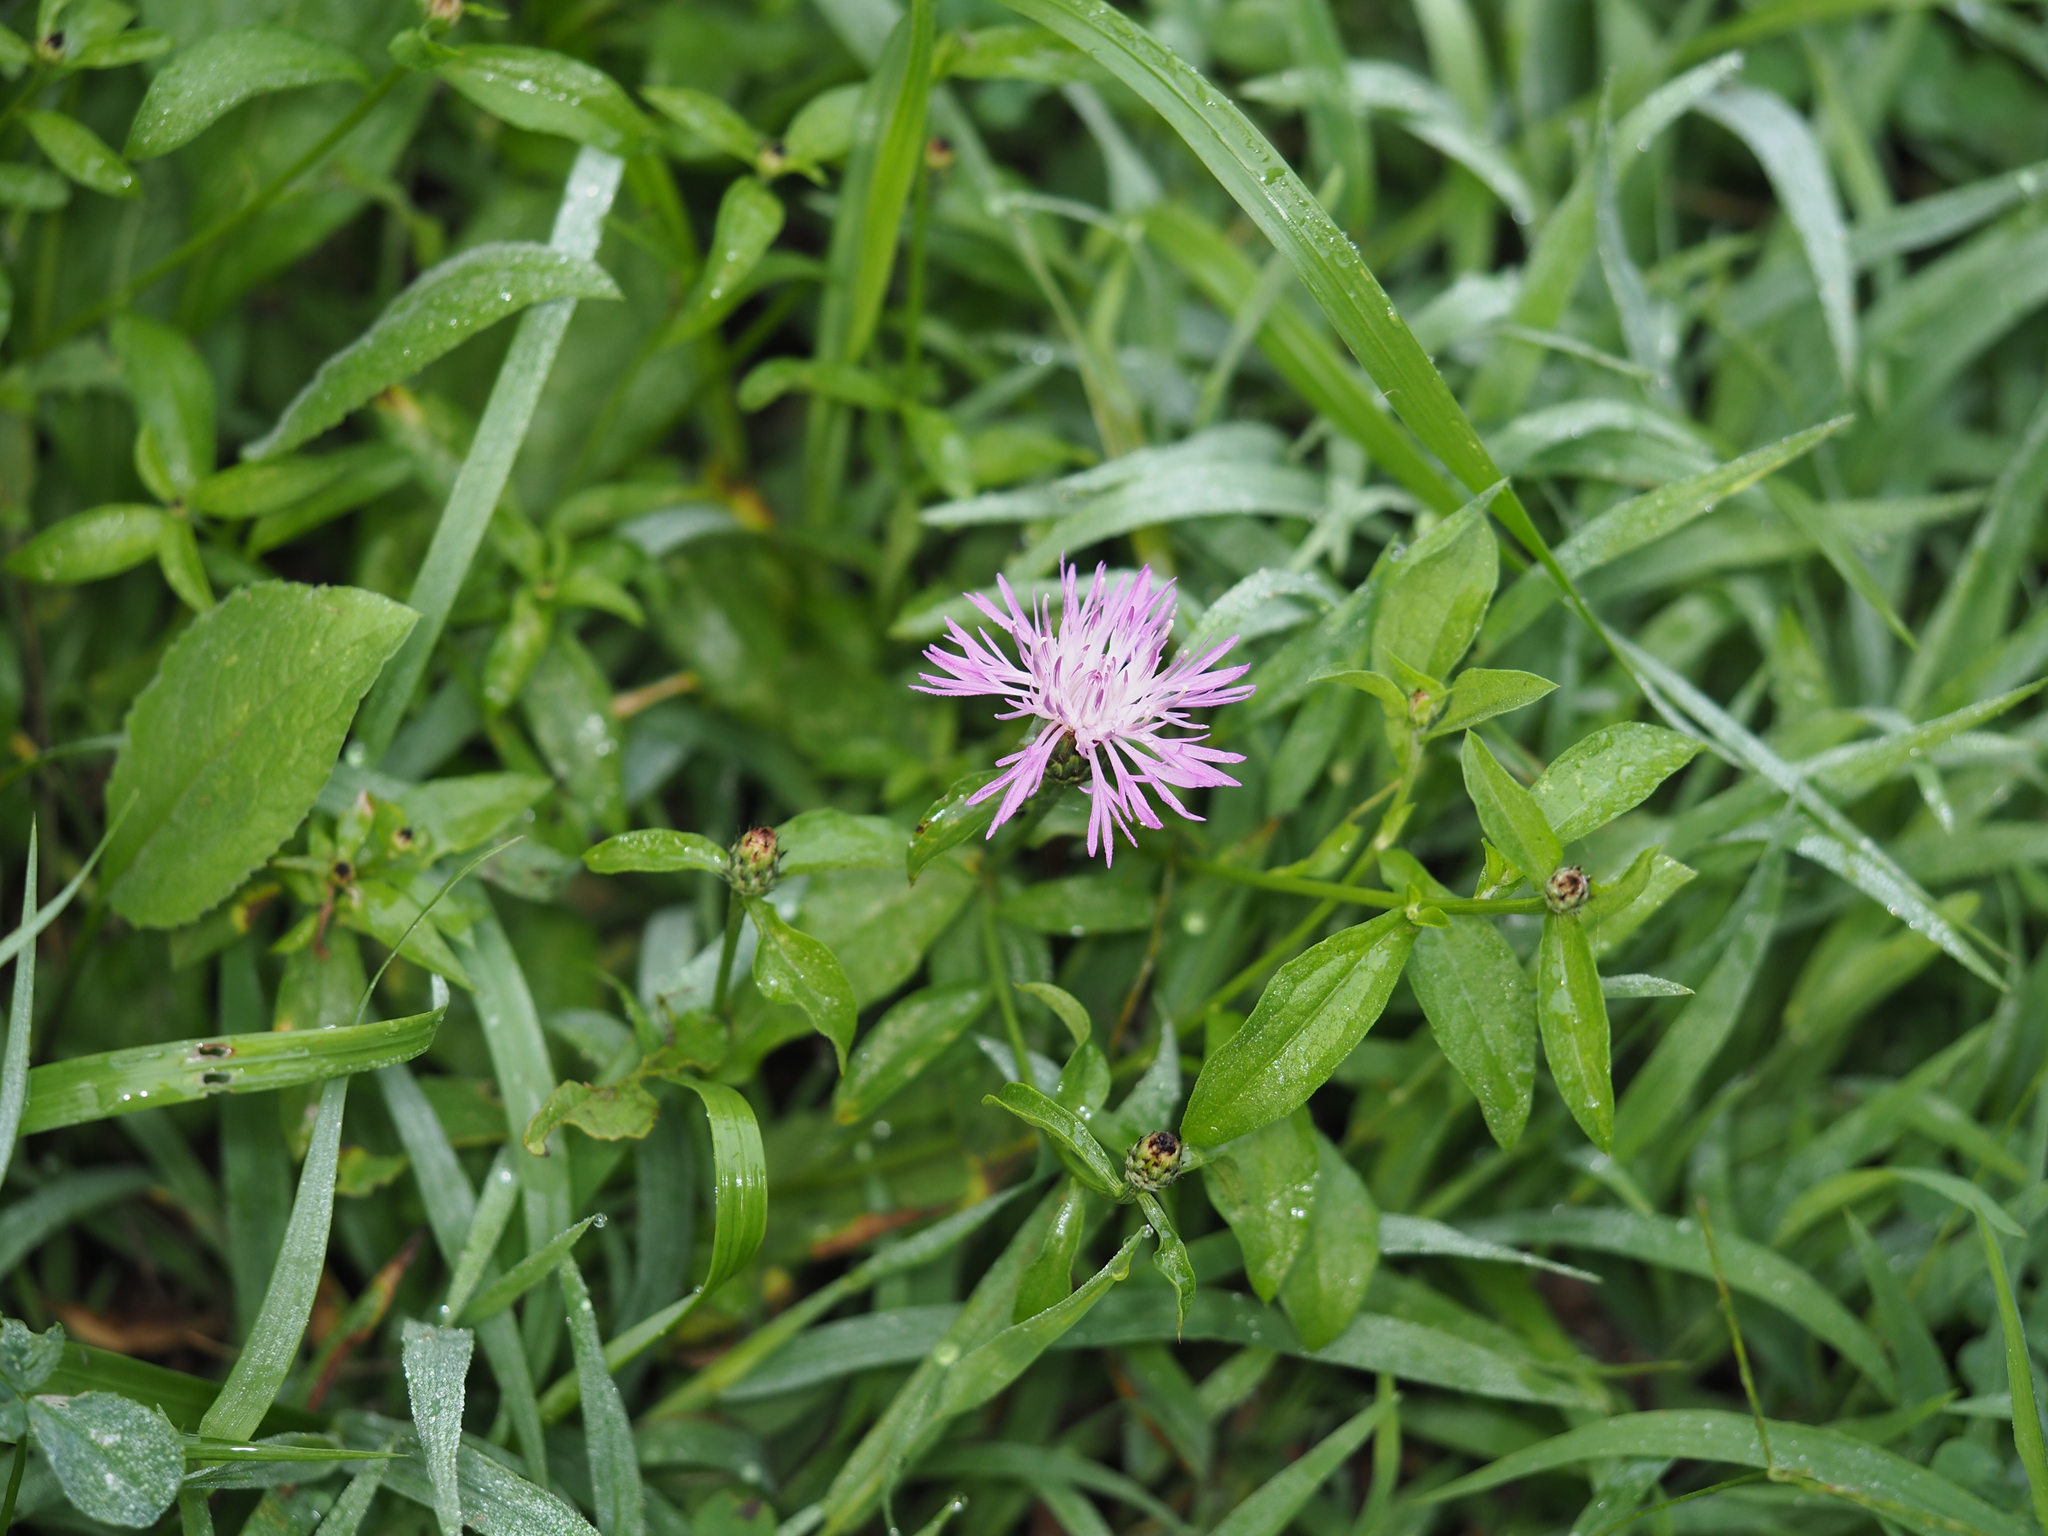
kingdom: Plantae
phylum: Tracheophyta
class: Magnoliopsida
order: Asterales
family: Asteraceae
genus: Centaurea
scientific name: Centaurea nigrescens
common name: Tyrol knapweed
